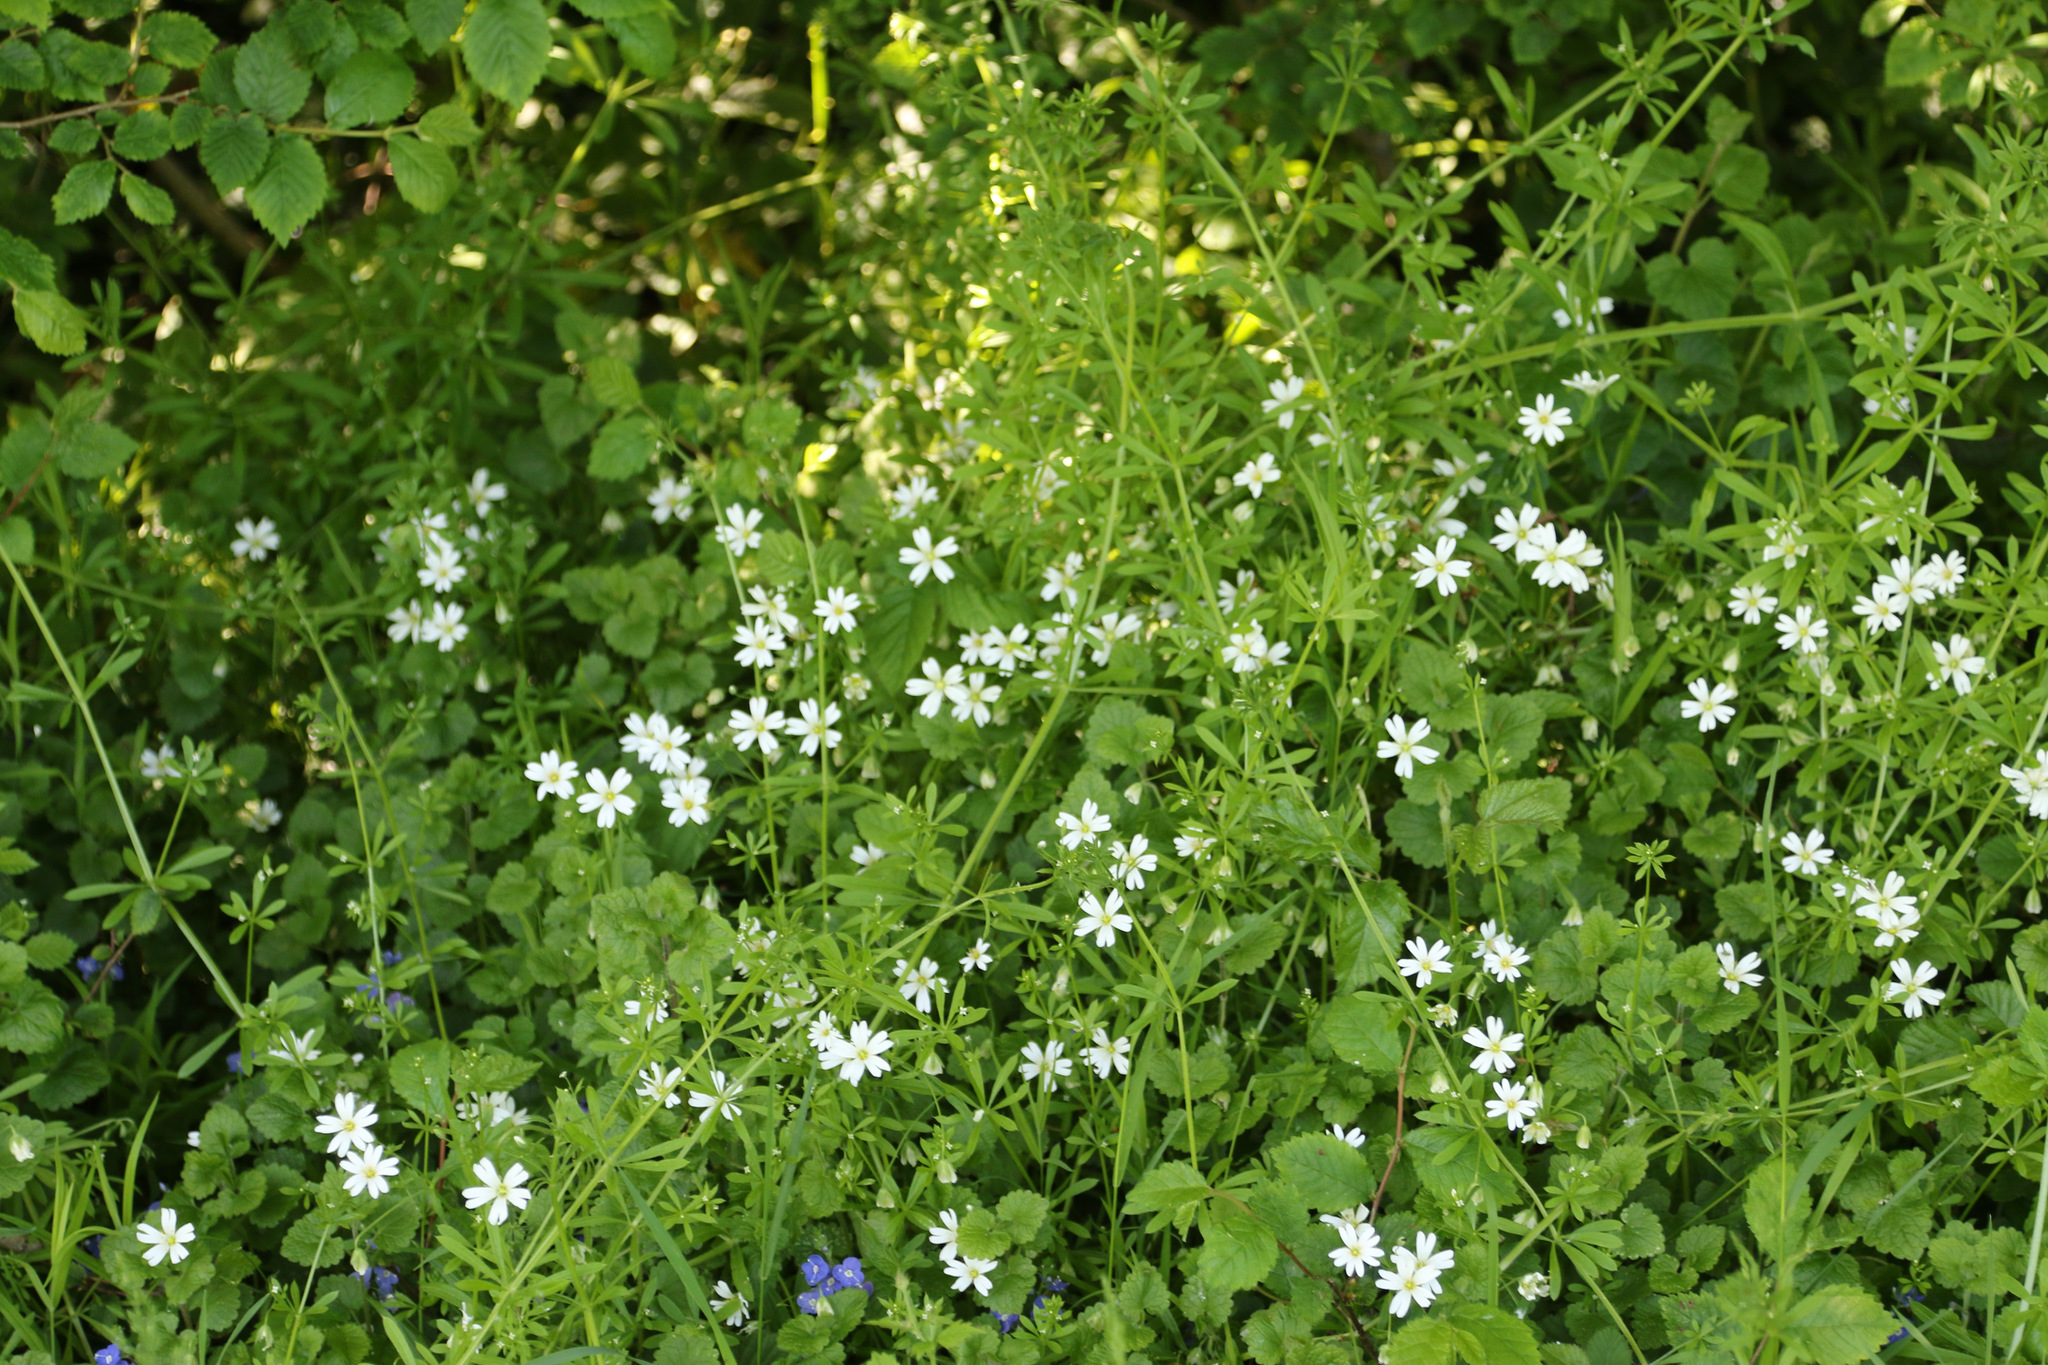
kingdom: Plantae
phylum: Tracheophyta
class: Magnoliopsida
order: Caryophyllales
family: Caryophyllaceae
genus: Rabelera
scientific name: Rabelera holostea
